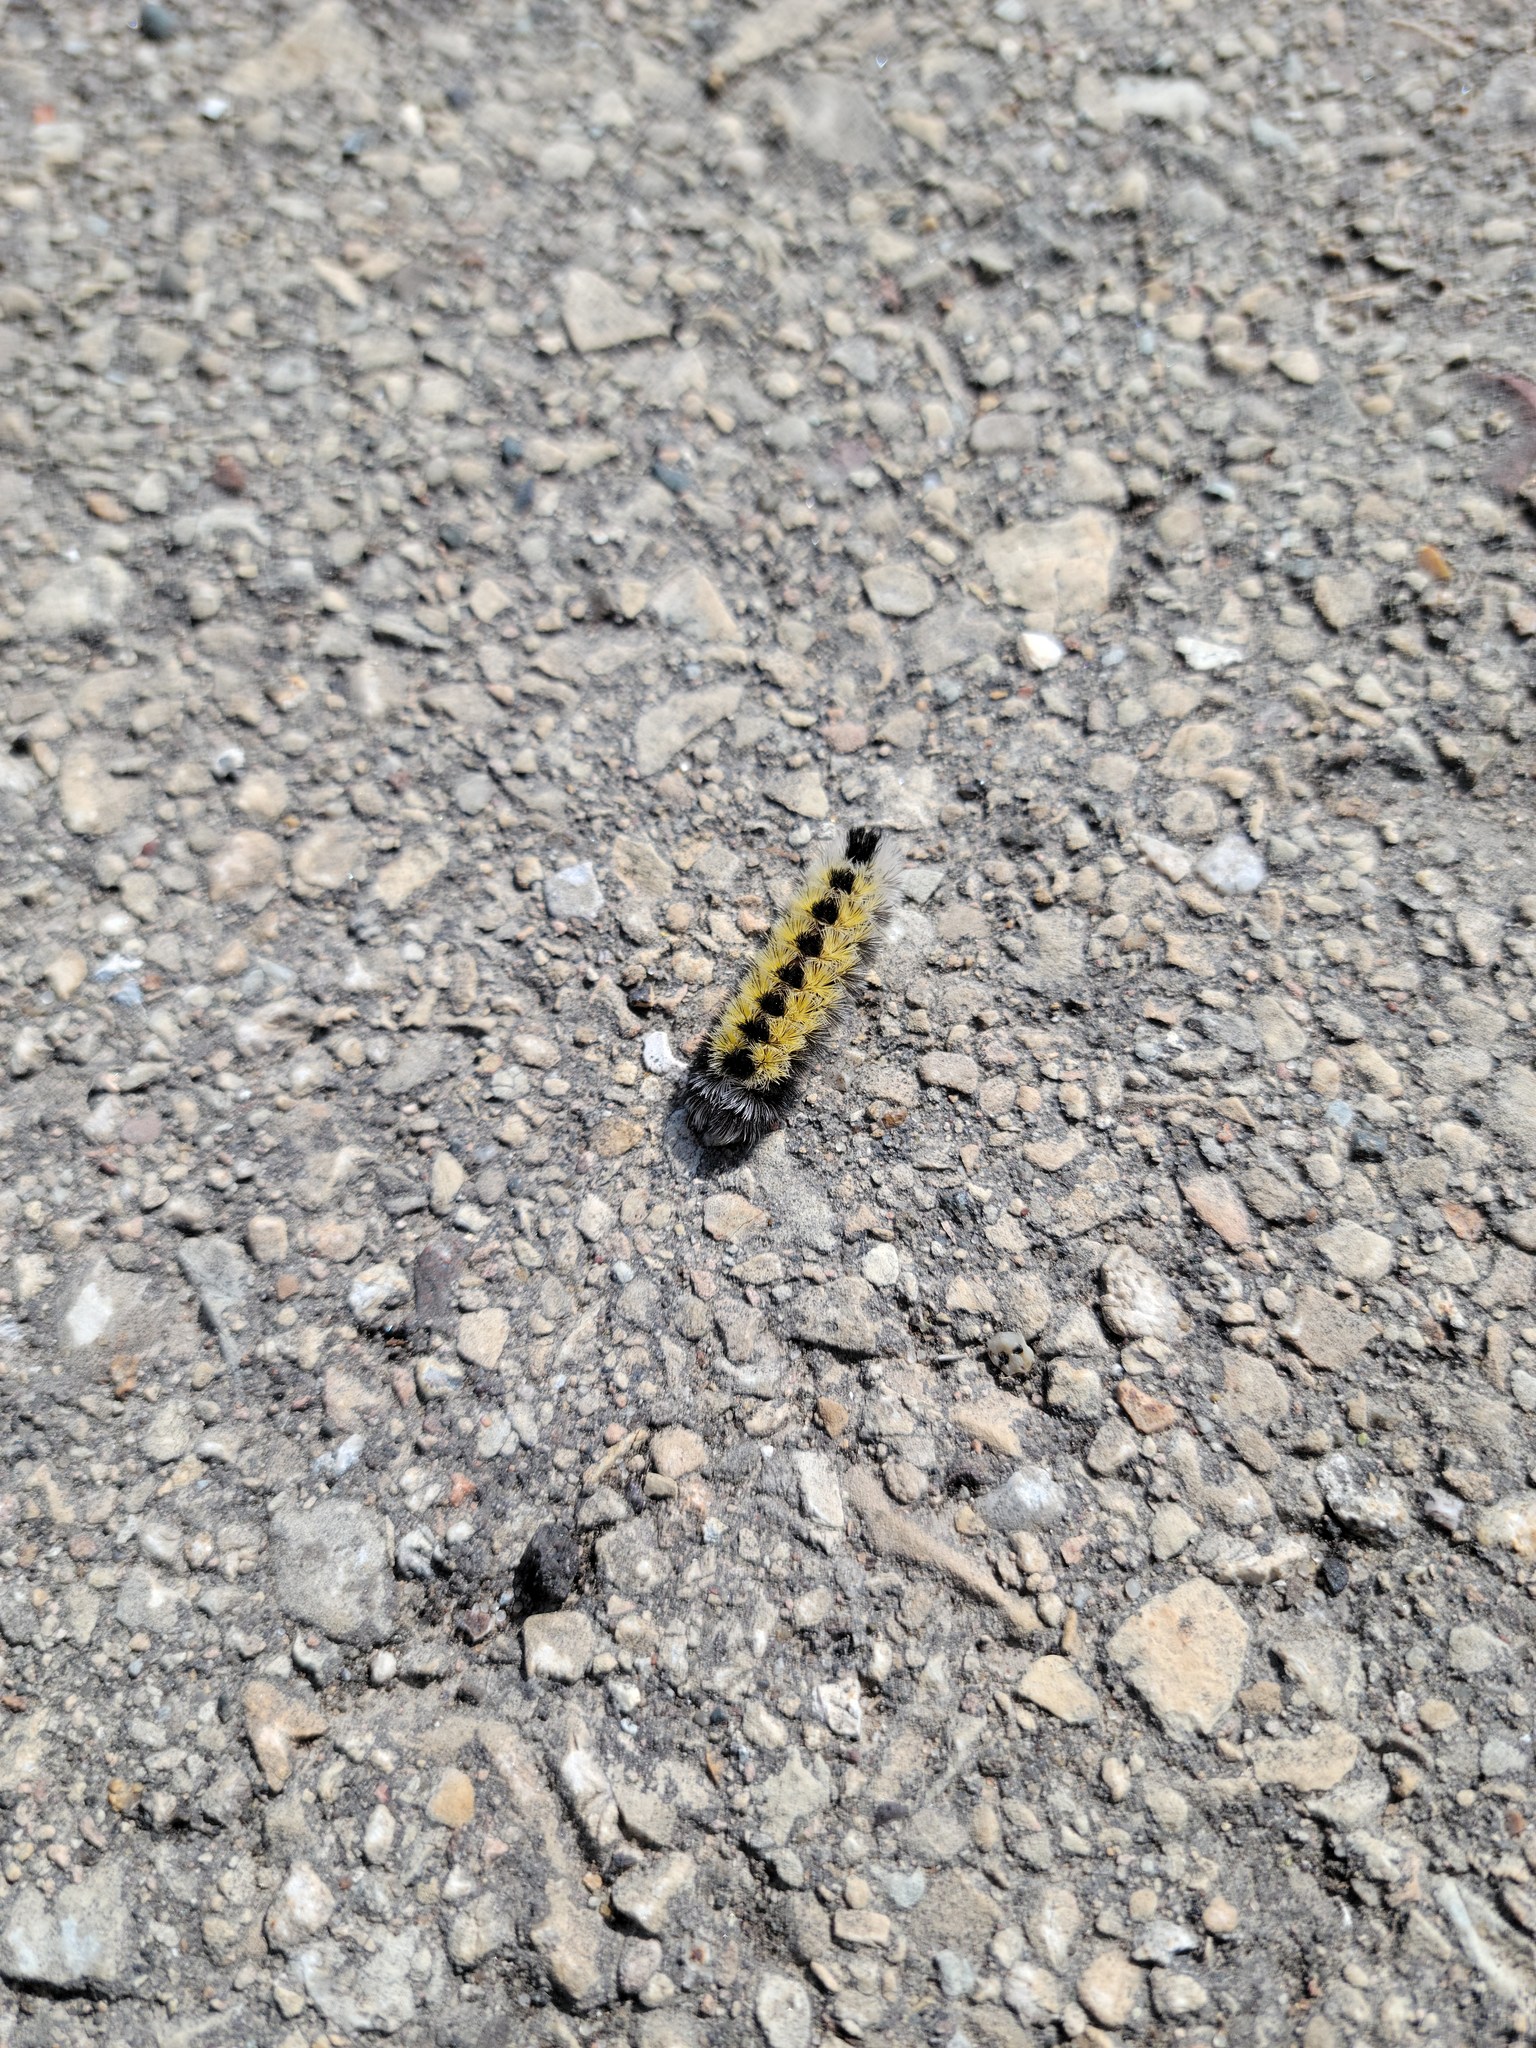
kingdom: Animalia
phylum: Arthropoda
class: Insecta
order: Lepidoptera
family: Erebidae
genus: Ctenucha
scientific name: Ctenucha virginica
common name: Virginia ctenucha moth
